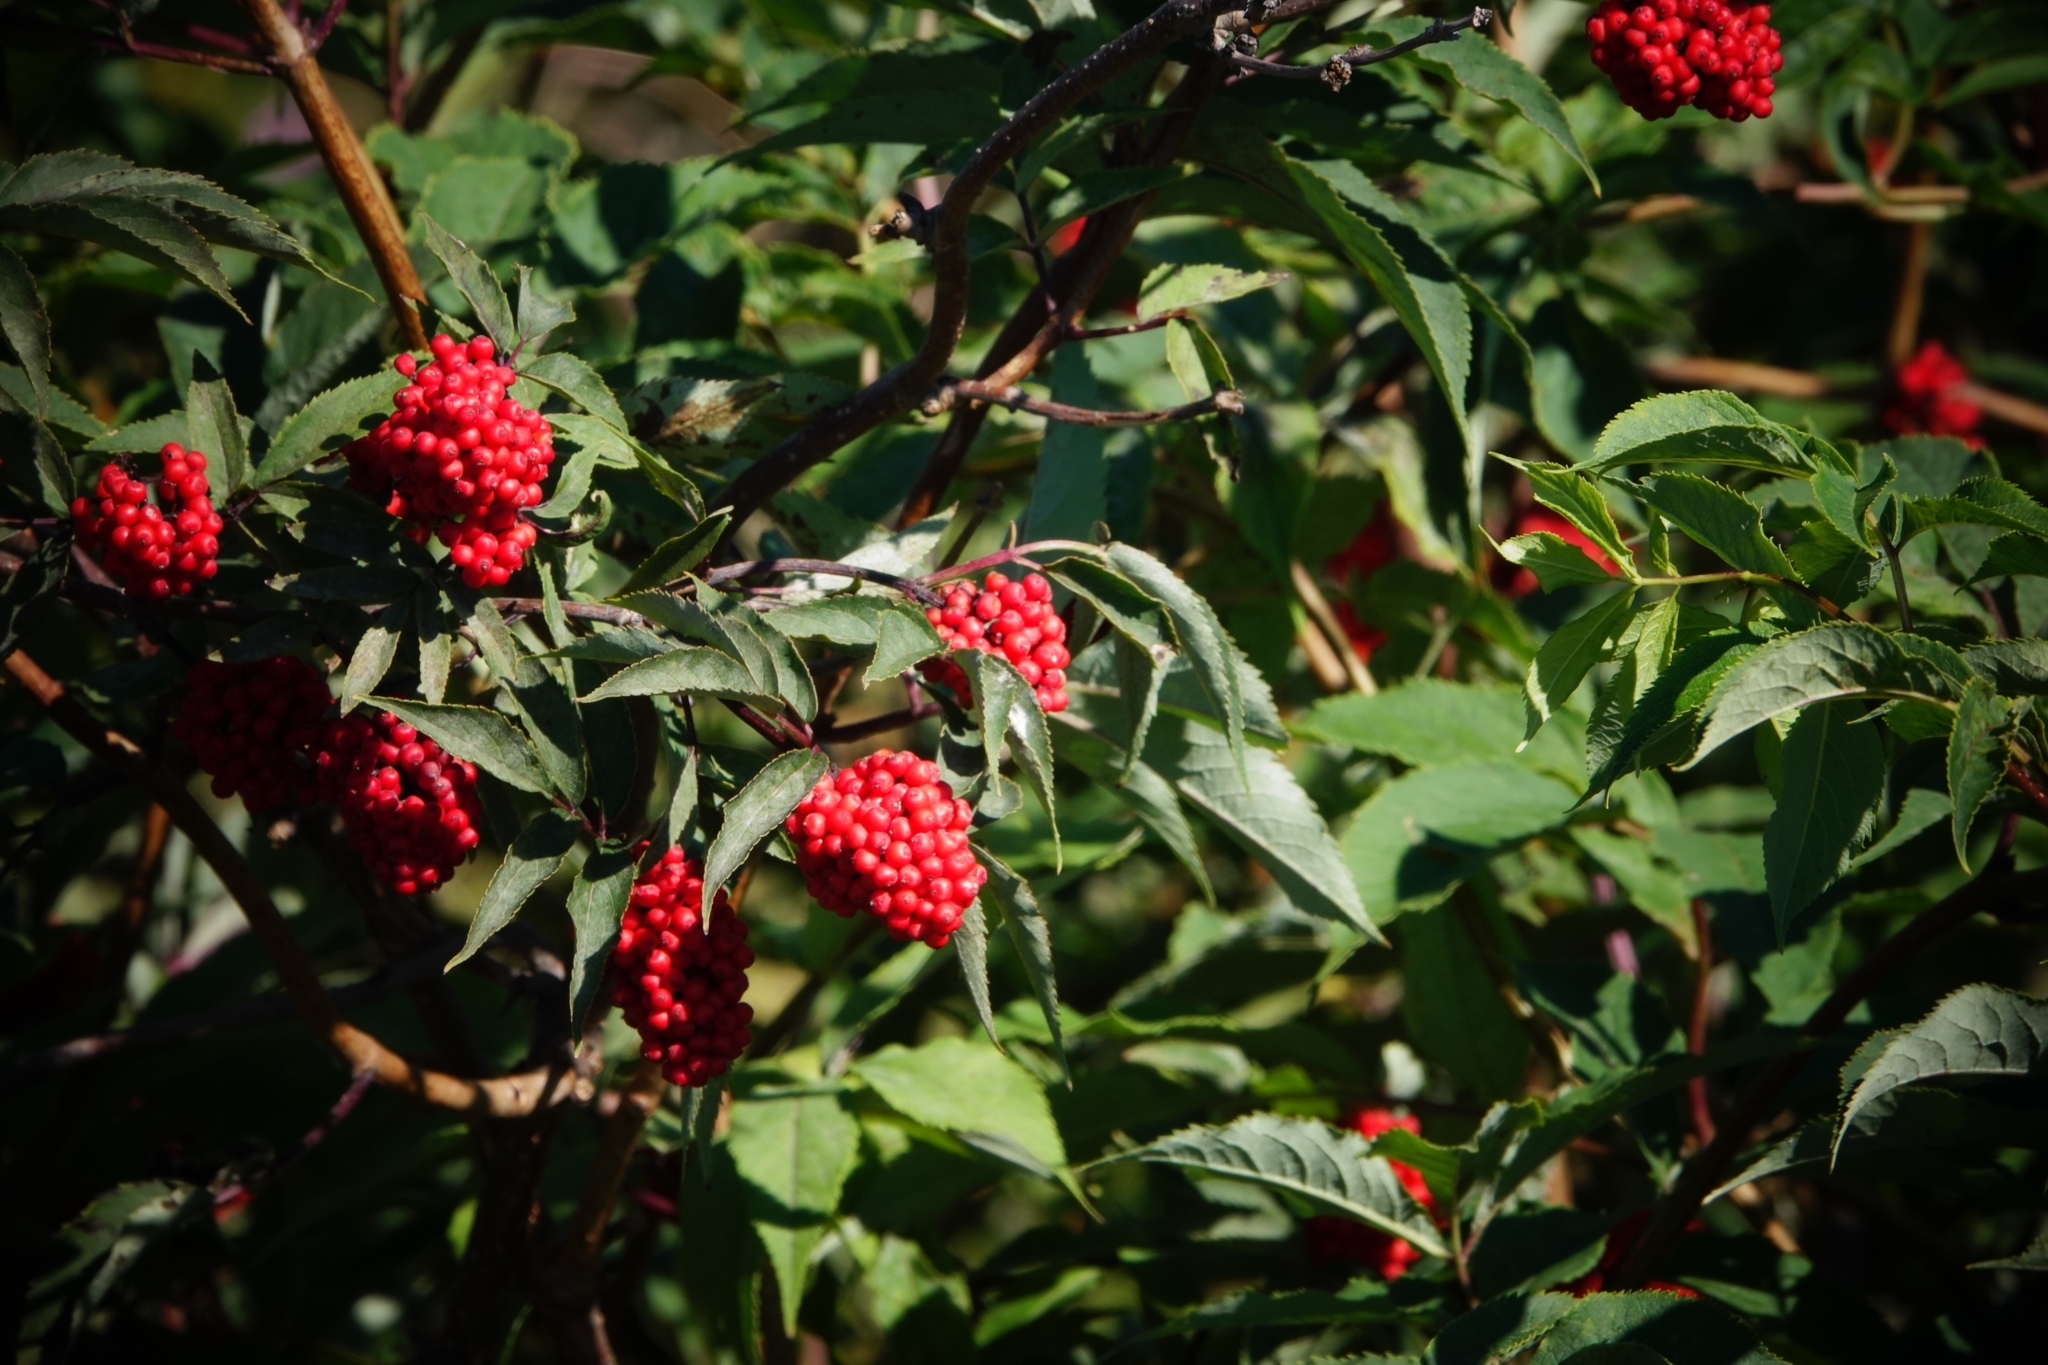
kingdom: Plantae
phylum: Tracheophyta
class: Magnoliopsida
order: Dipsacales
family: Viburnaceae
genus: Sambucus
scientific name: Sambucus racemosa
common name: Red-berried elder
